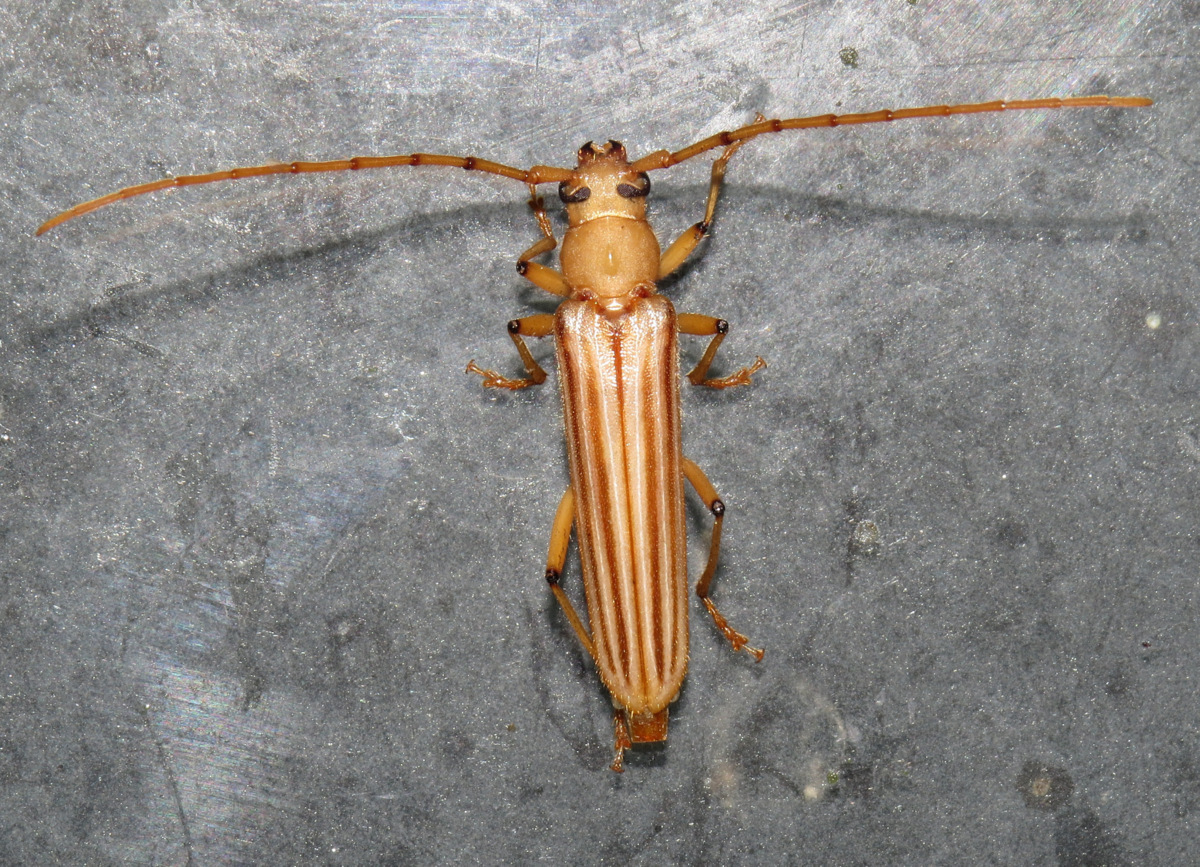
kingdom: Animalia
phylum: Arthropoda
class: Insecta
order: Coleoptera
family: Cerambycidae
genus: Malacopterus
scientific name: Malacopterus tenellus
